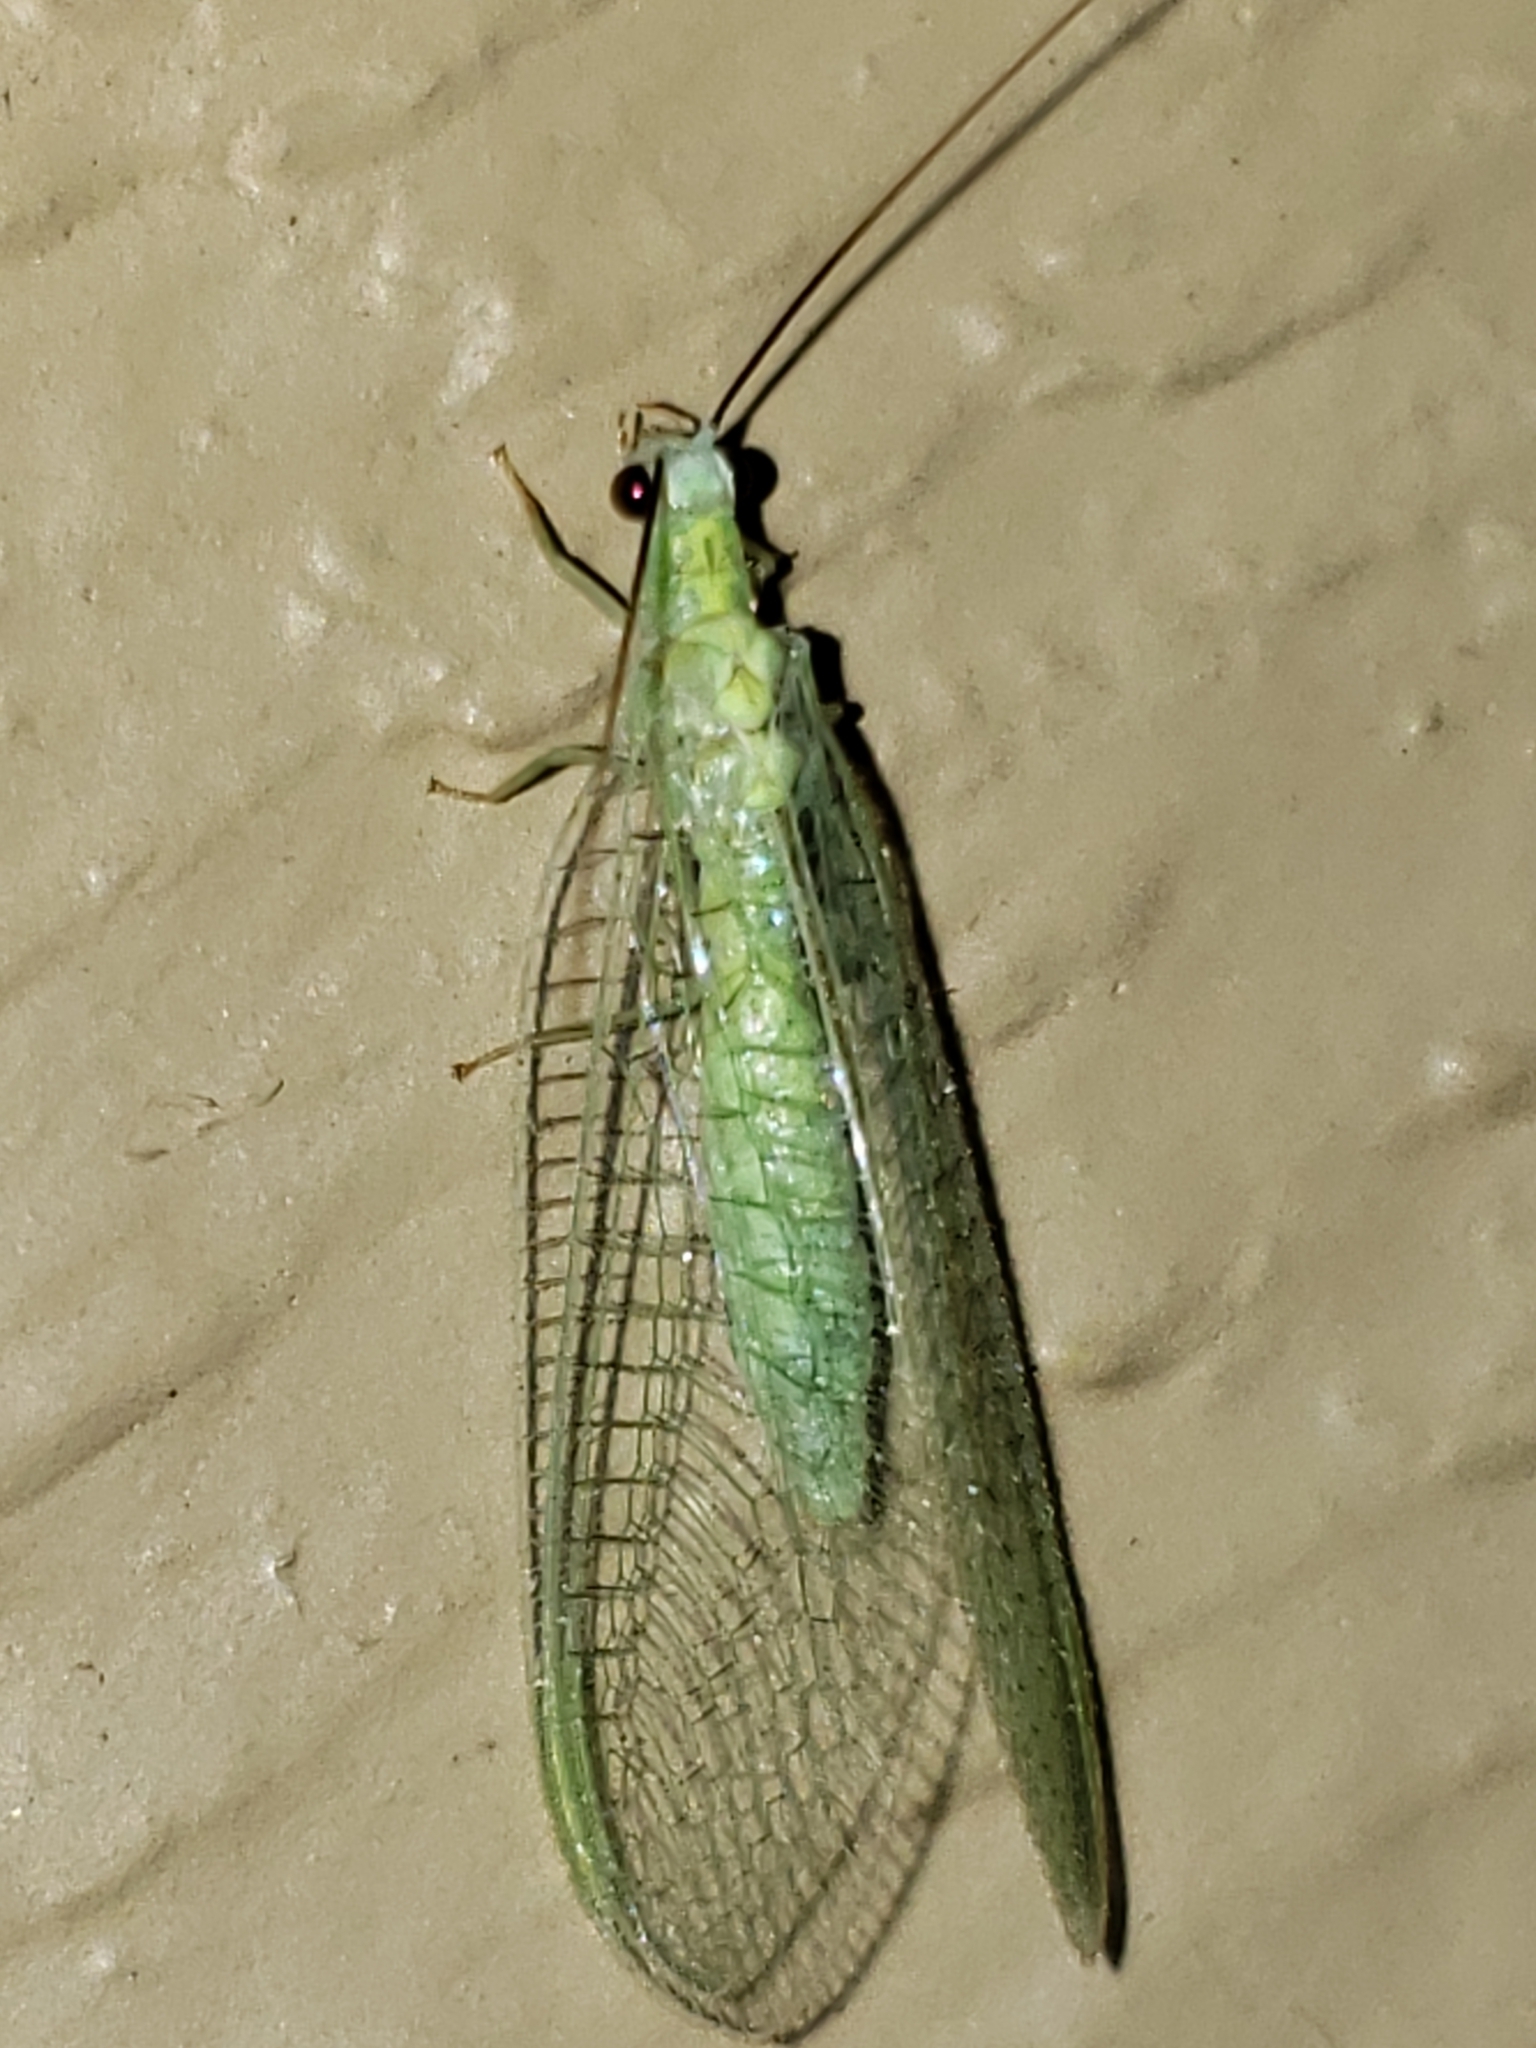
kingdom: Animalia
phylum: Arthropoda
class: Insecta
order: Neuroptera
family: Chrysopidae
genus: Chrysopa
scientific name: Chrysopa nigricornis
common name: Black-horned green lacewing
